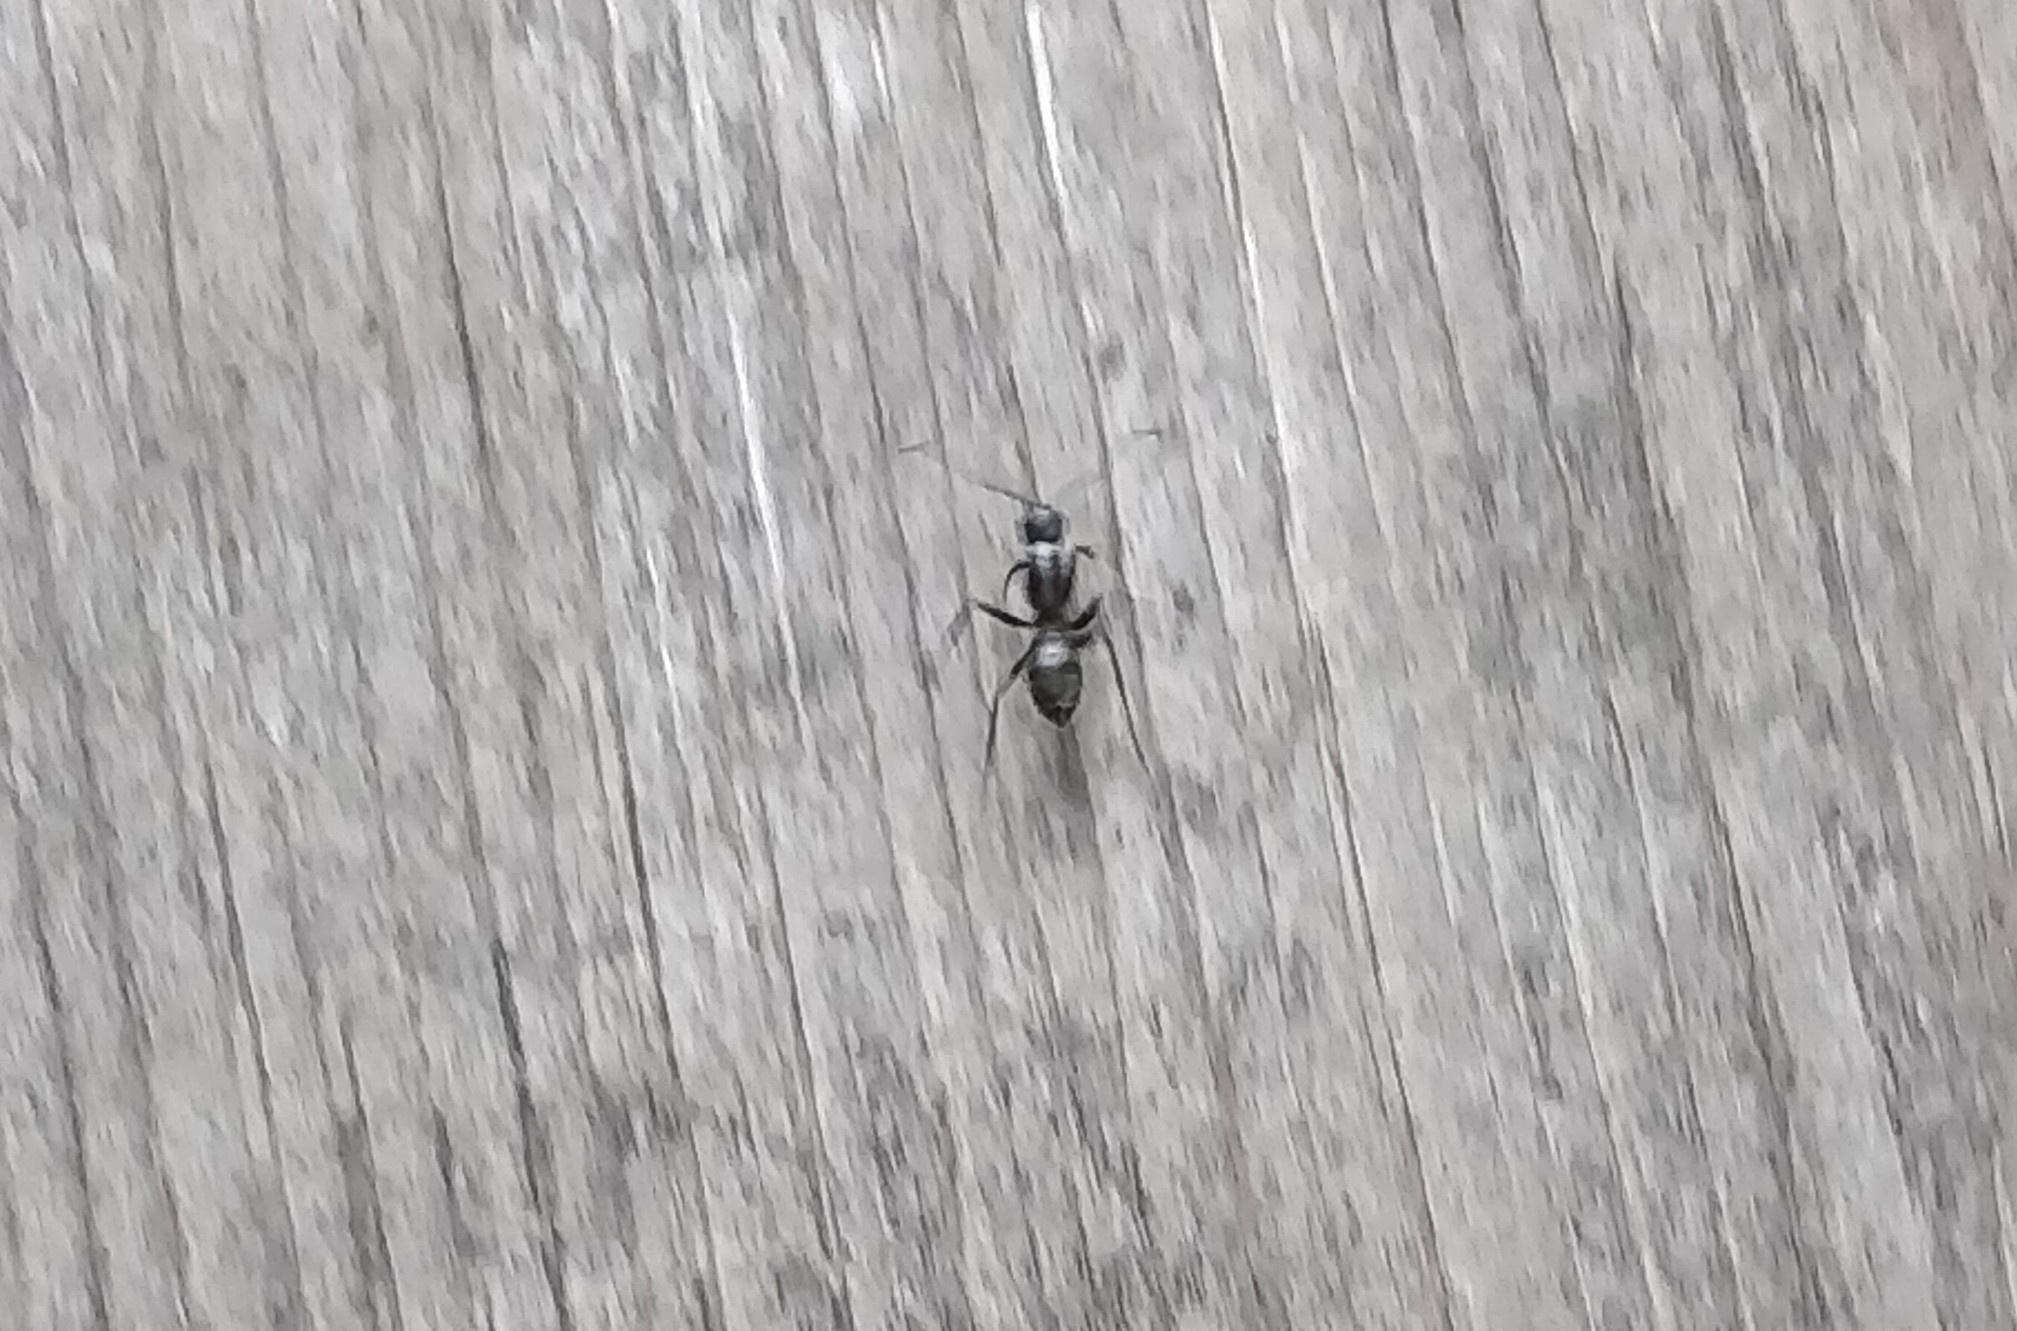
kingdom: Animalia
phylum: Arthropoda
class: Insecta
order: Hymenoptera
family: Formicidae
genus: Camponotus
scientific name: Camponotus pennsylvanicus
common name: Black carpenter ant
